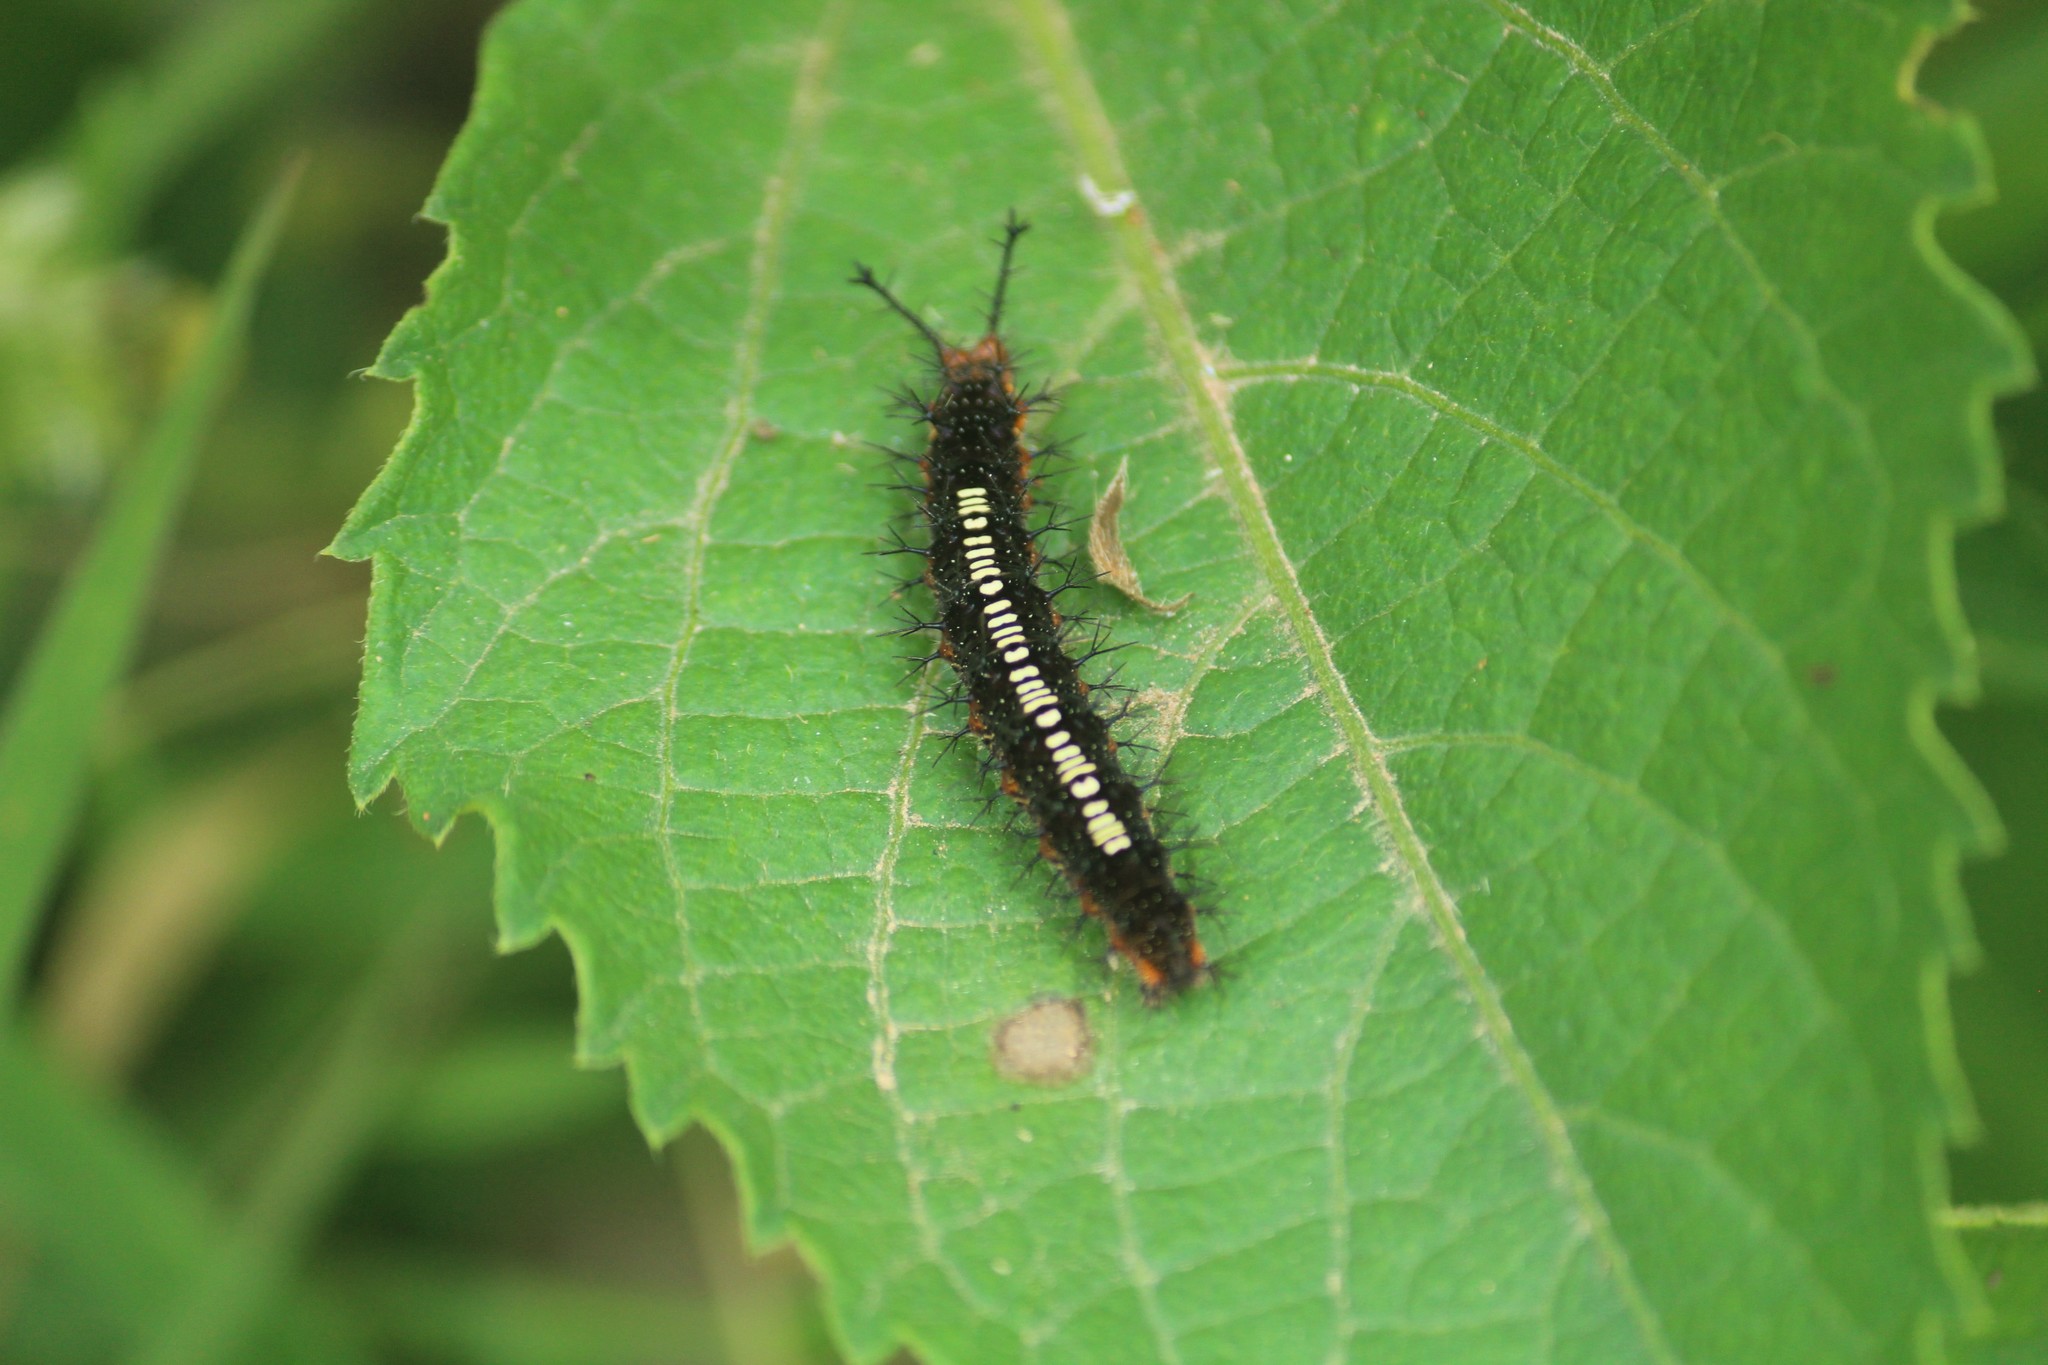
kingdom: Animalia
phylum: Arthropoda
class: Insecta
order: Lepidoptera
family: Nymphalidae
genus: Ariadne
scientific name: Ariadne ariadne
